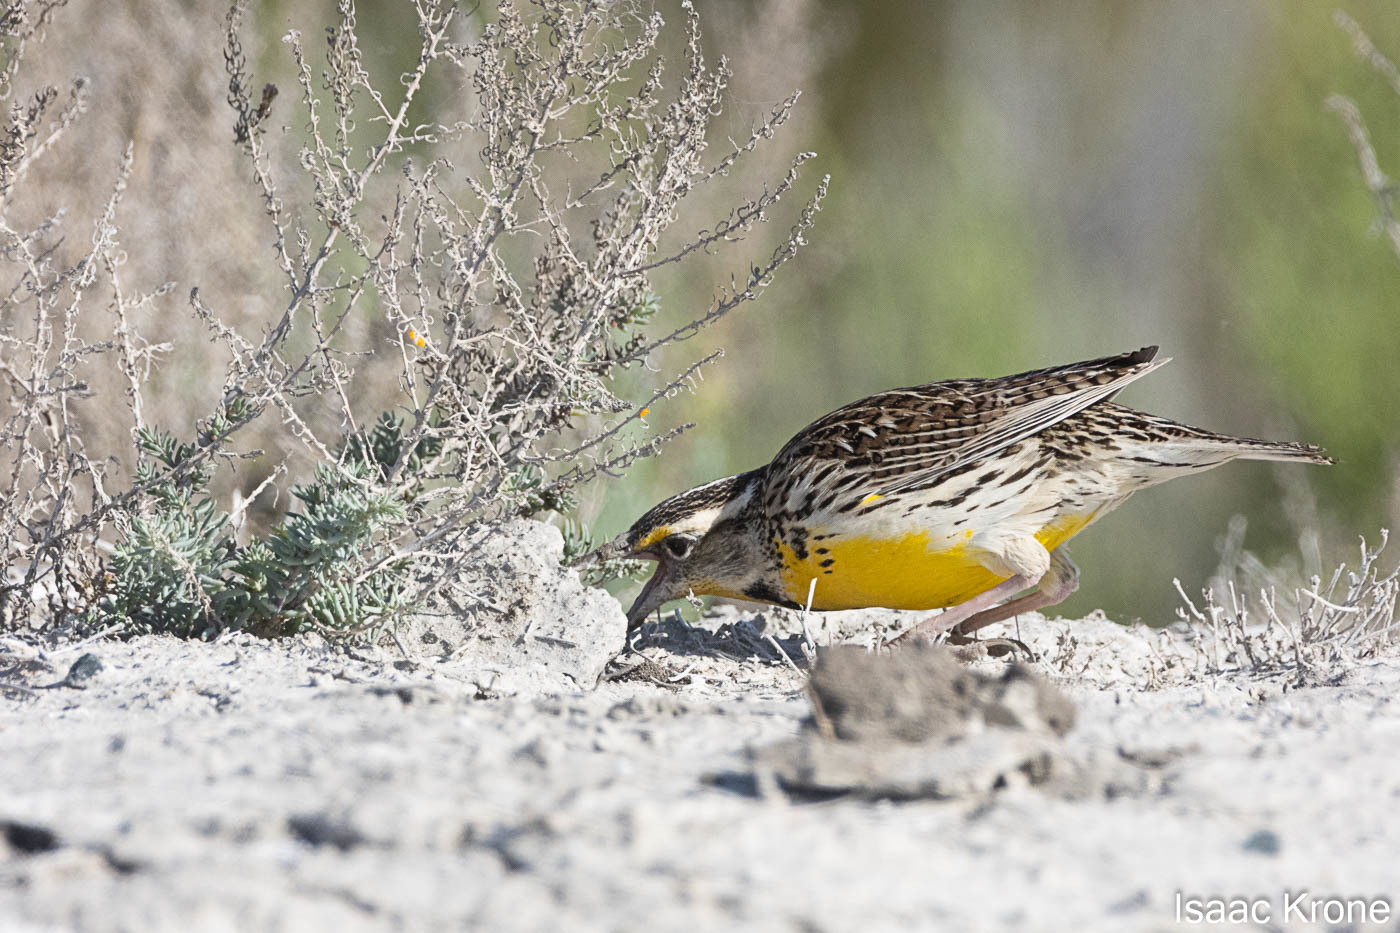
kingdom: Animalia
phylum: Chordata
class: Aves
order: Passeriformes
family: Icteridae
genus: Sturnella
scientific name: Sturnella neglecta
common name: Western meadowlark
